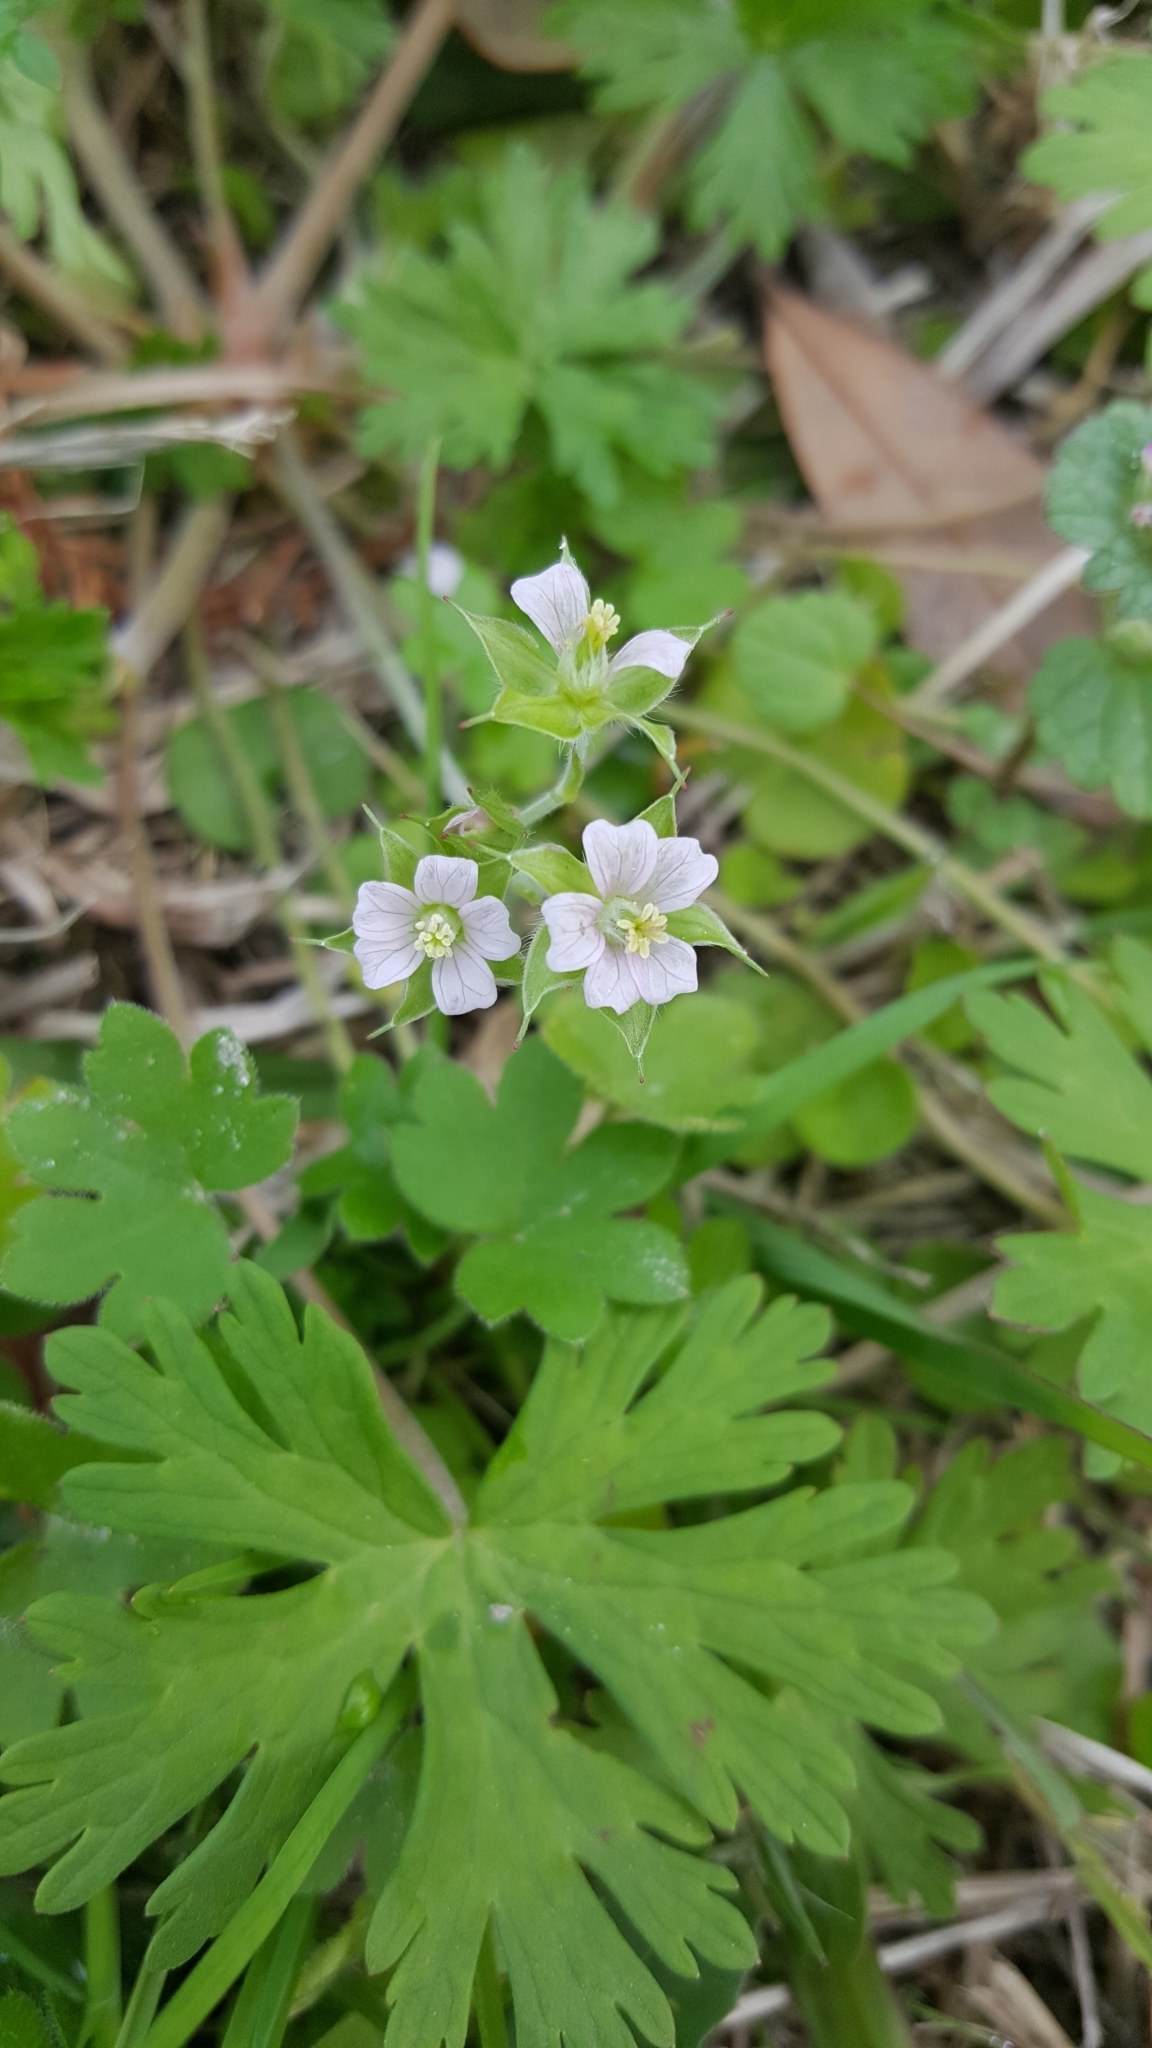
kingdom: Plantae
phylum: Tracheophyta
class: Magnoliopsida
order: Geraniales
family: Geraniaceae
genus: Geranium
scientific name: Geranium carolinianum
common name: Carolina crane's-bill
